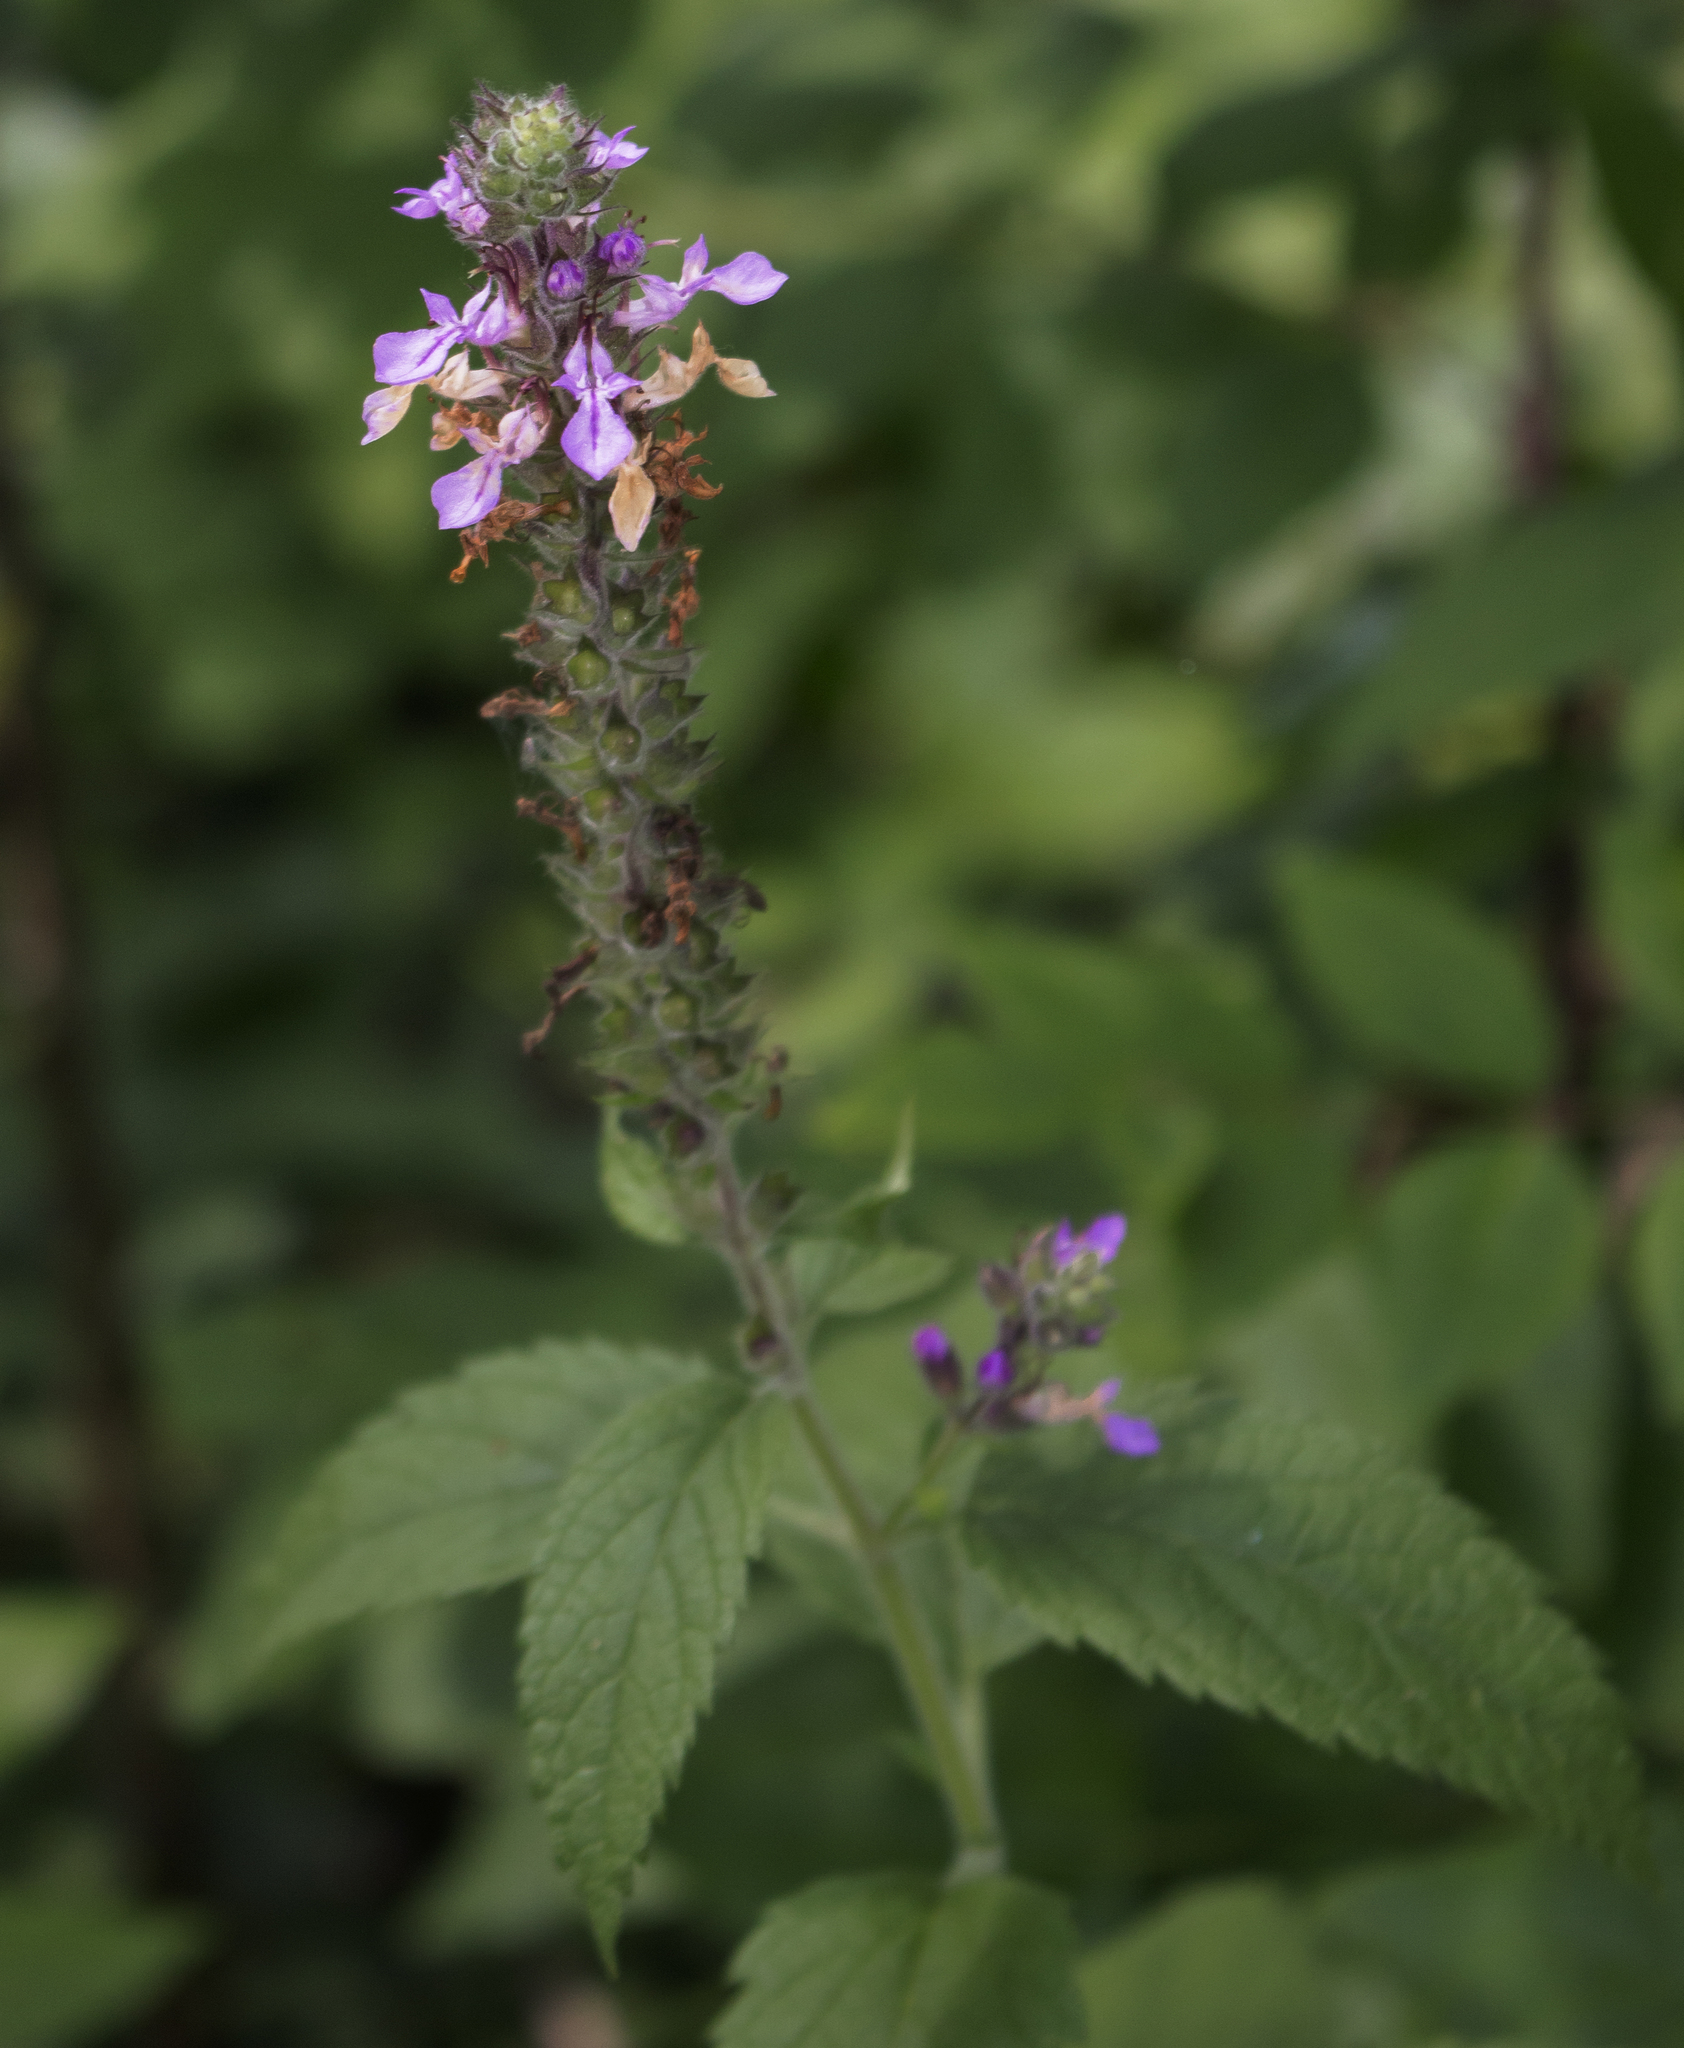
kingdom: Plantae
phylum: Tracheophyta
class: Magnoliopsida
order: Lamiales
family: Lamiaceae
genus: Teucrium
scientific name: Teucrium canadense
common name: American germander
